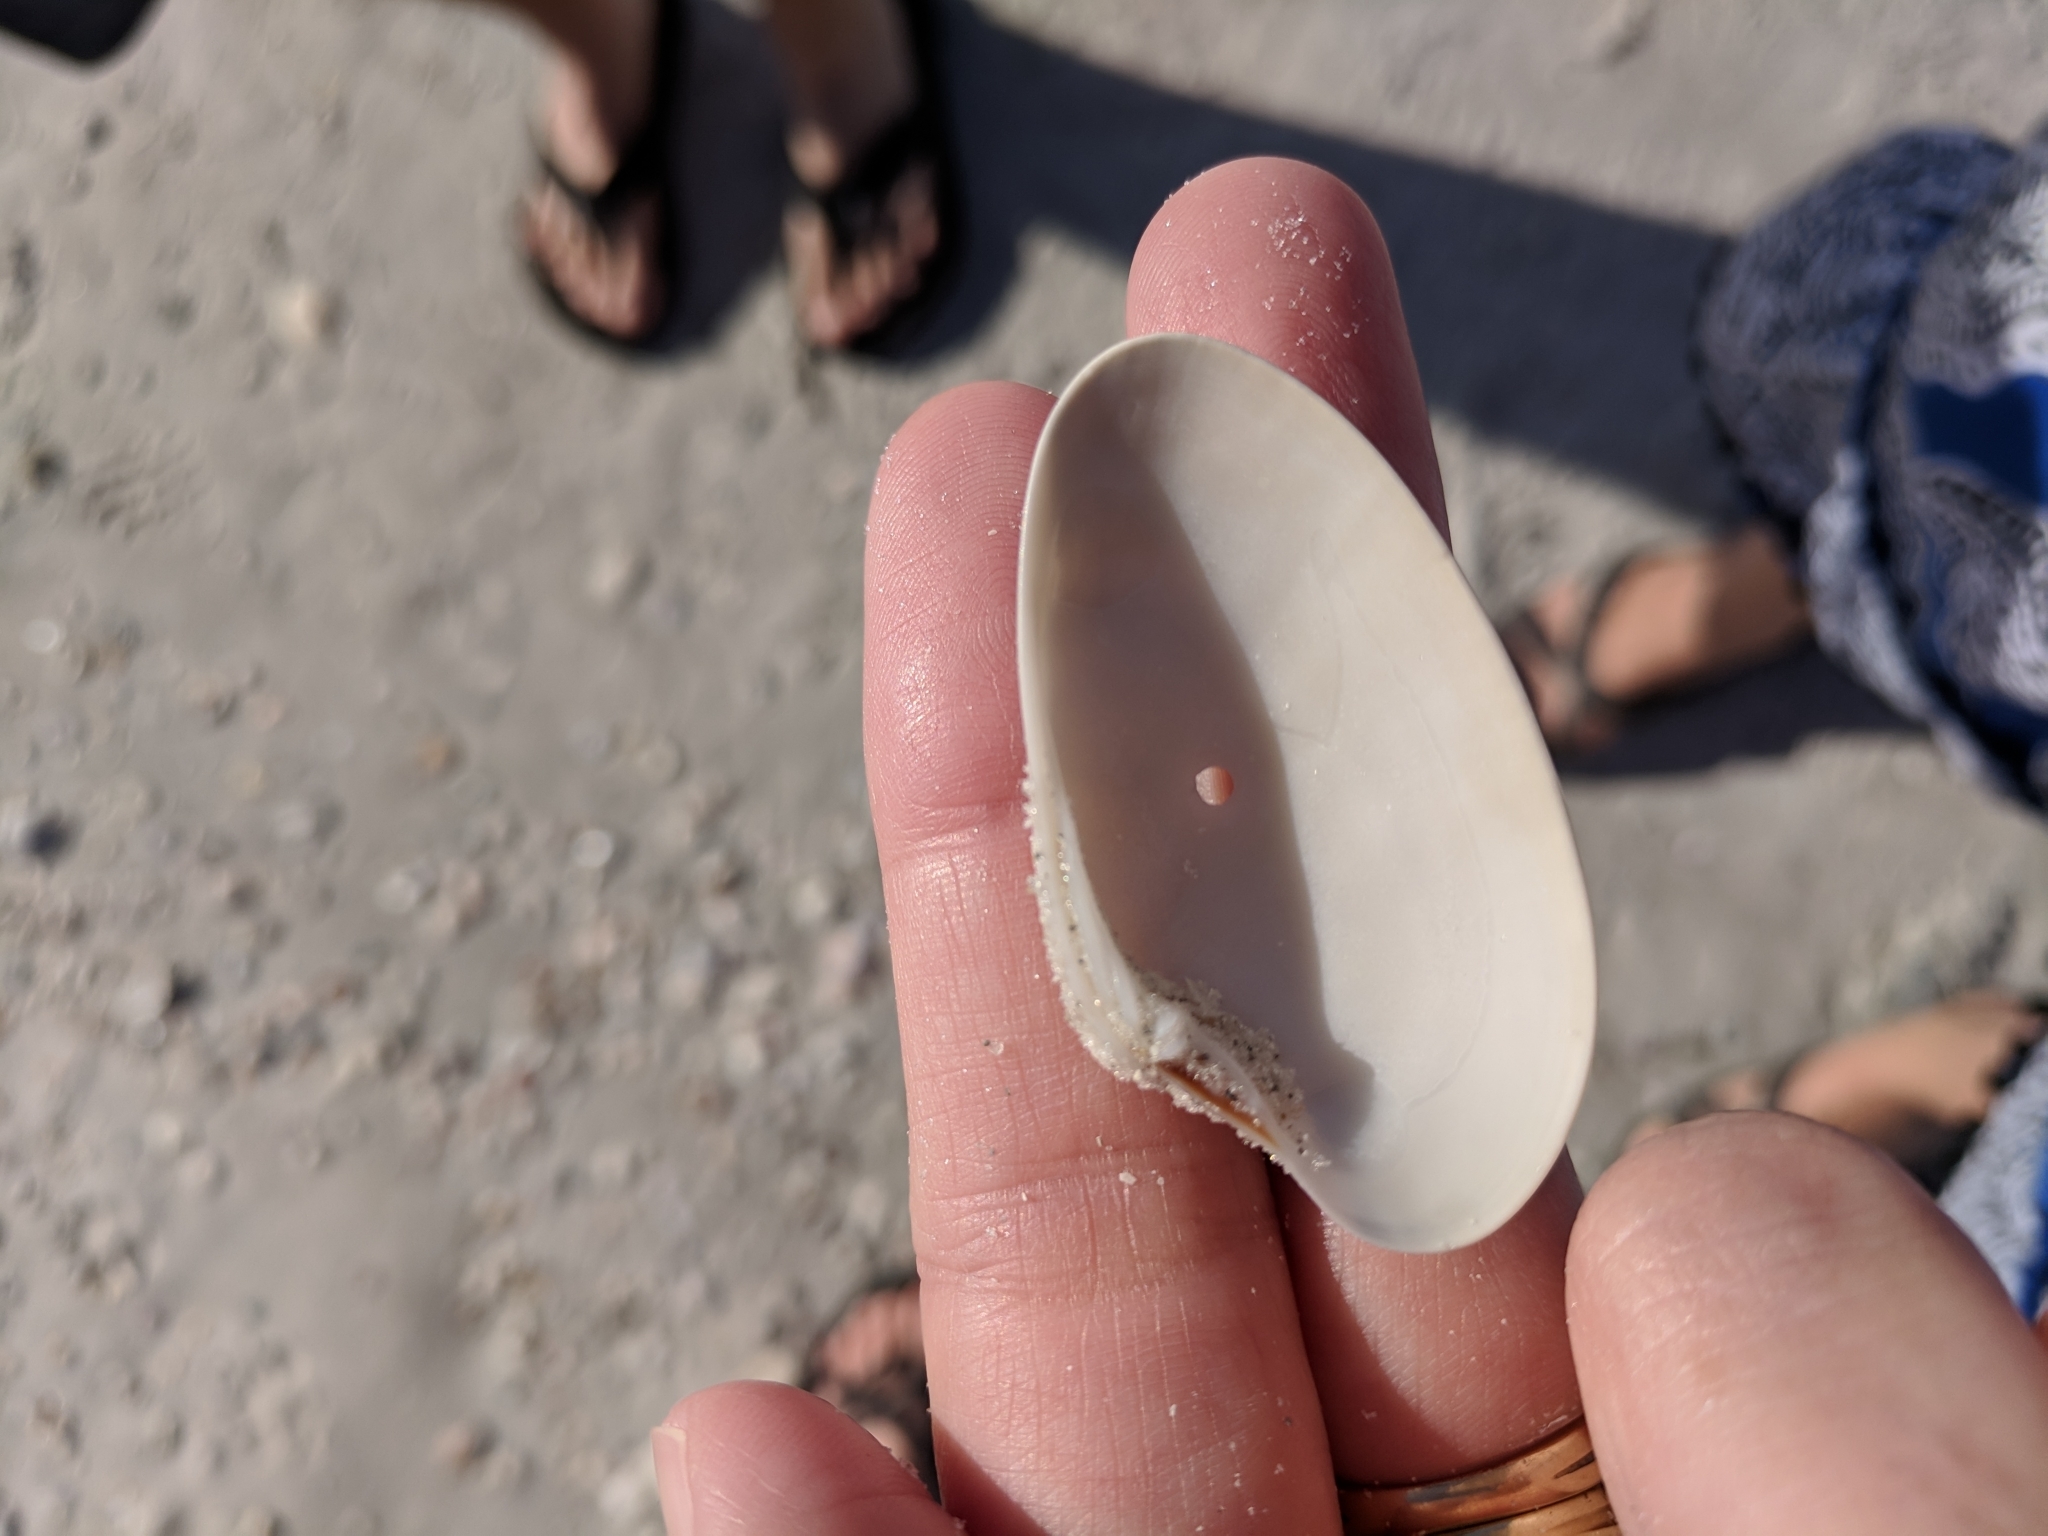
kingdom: Animalia
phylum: Mollusca
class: Bivalvia
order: Venerida
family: Veneridae
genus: Macrocallista
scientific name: Macrocallista nimbosa
